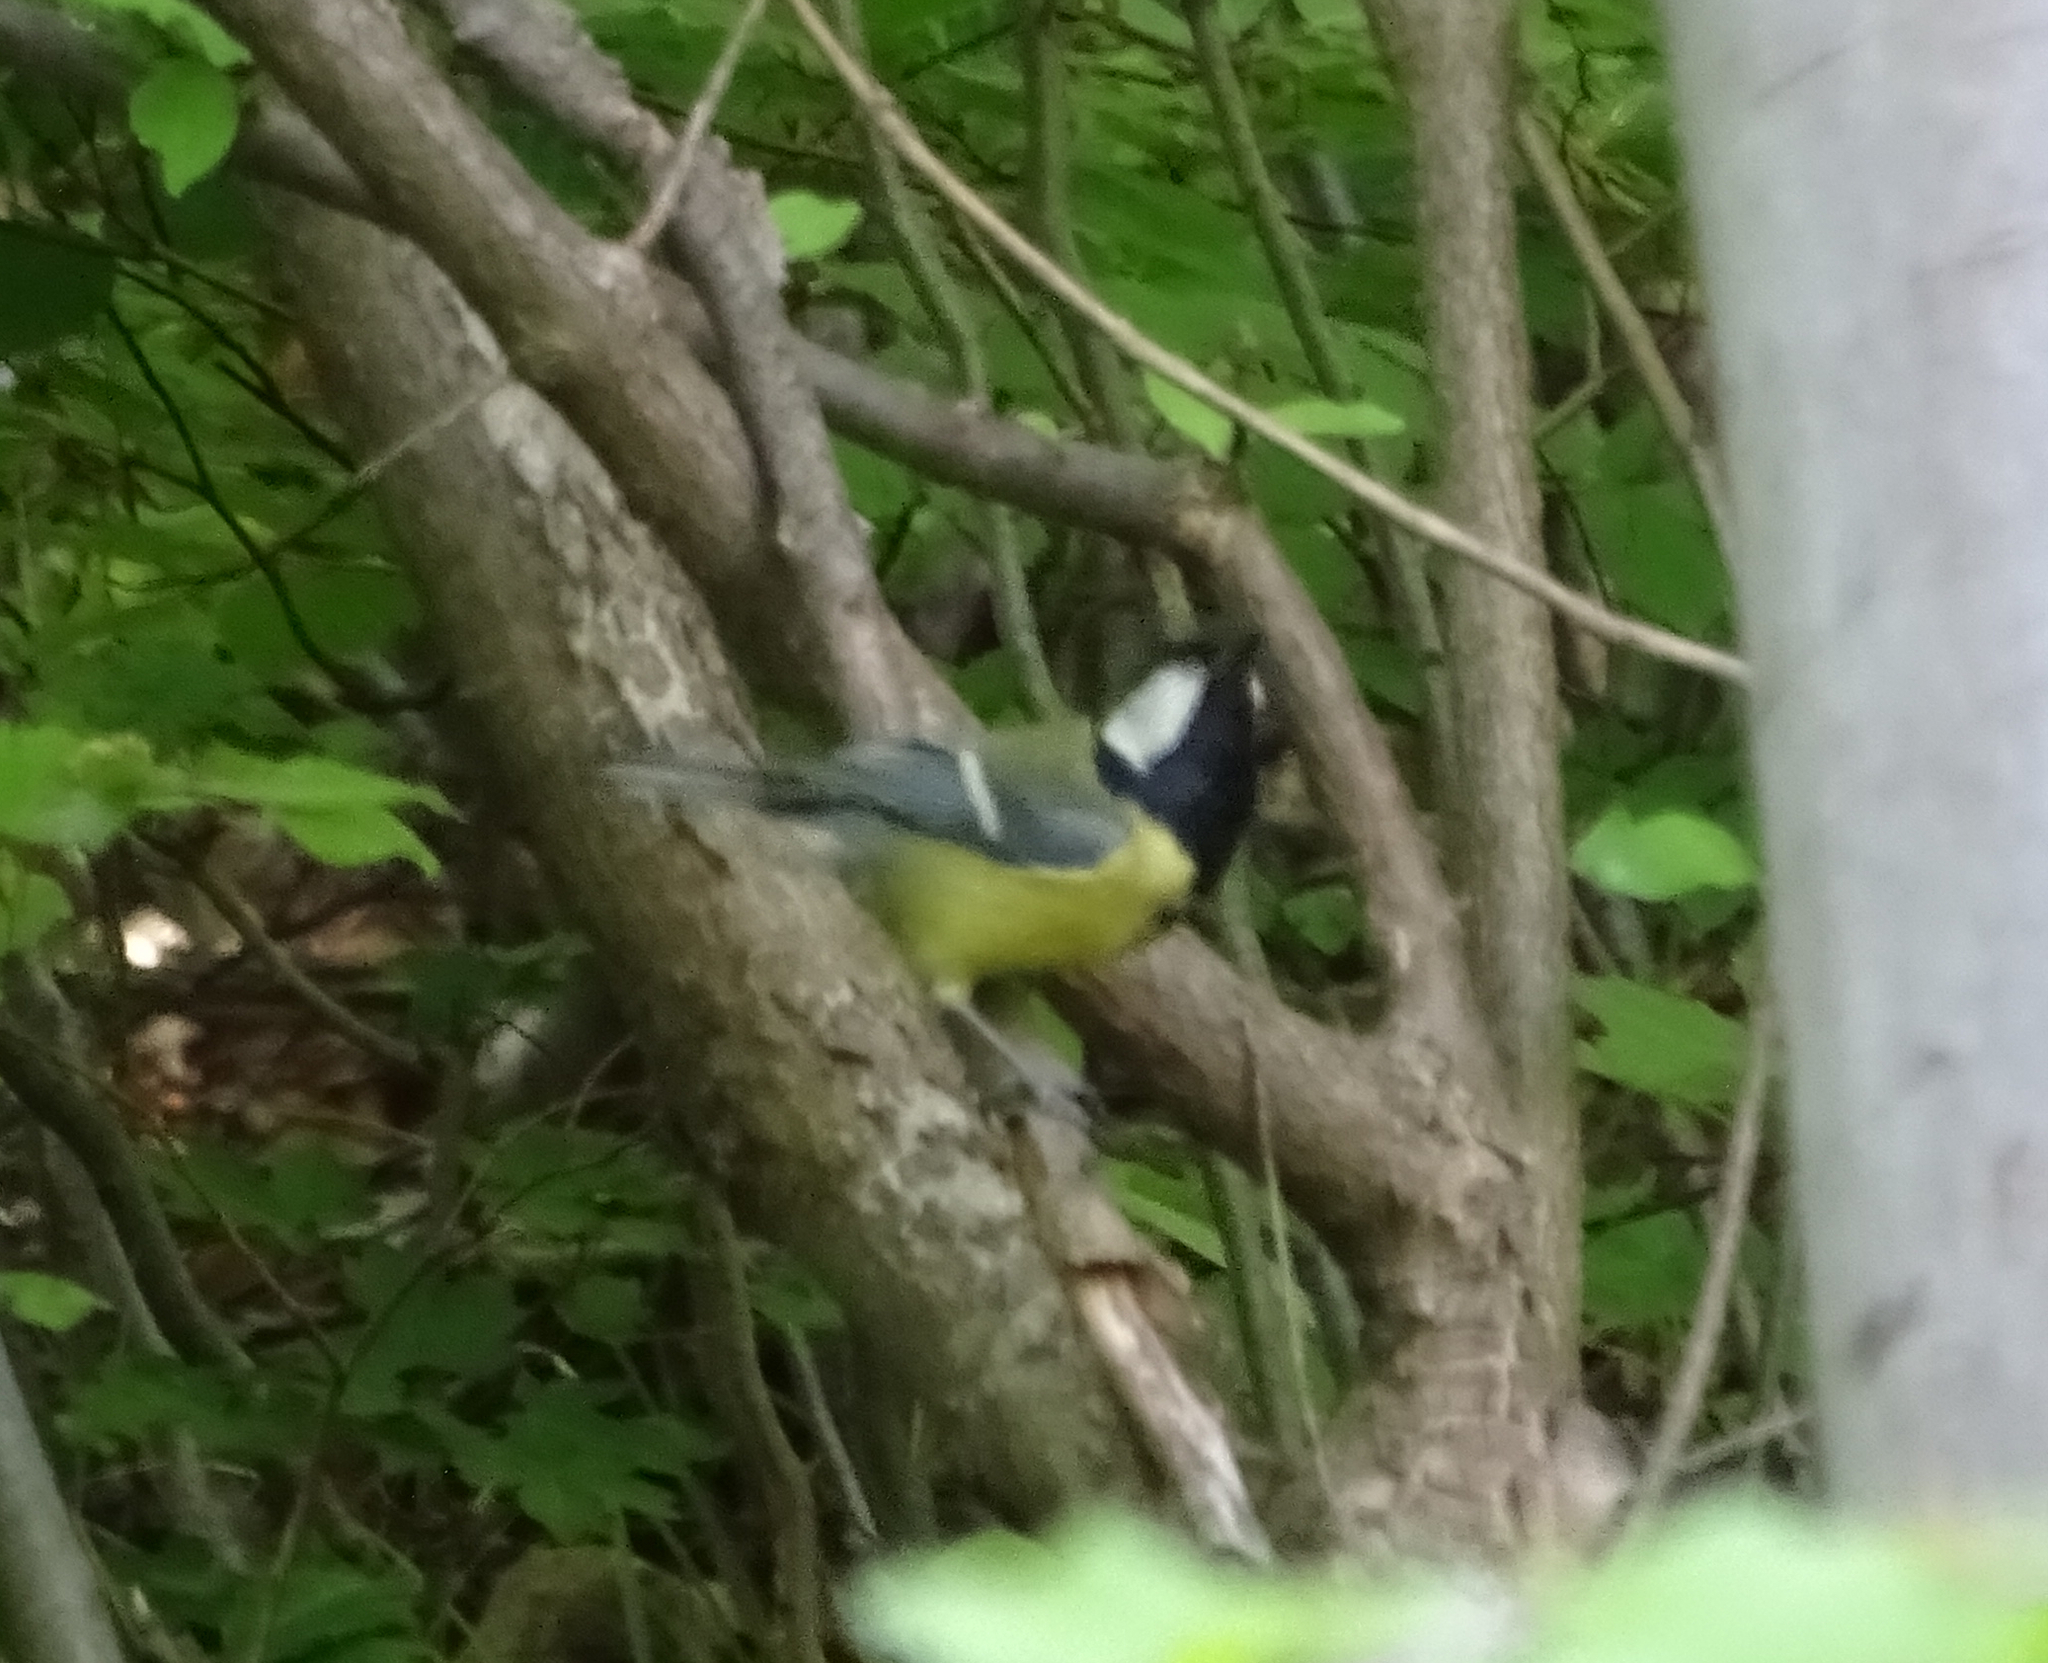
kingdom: Animalia
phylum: Chordata
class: Aves
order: Passeriformes
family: Paridae
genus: Parus
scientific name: Parus major
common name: Great tit
